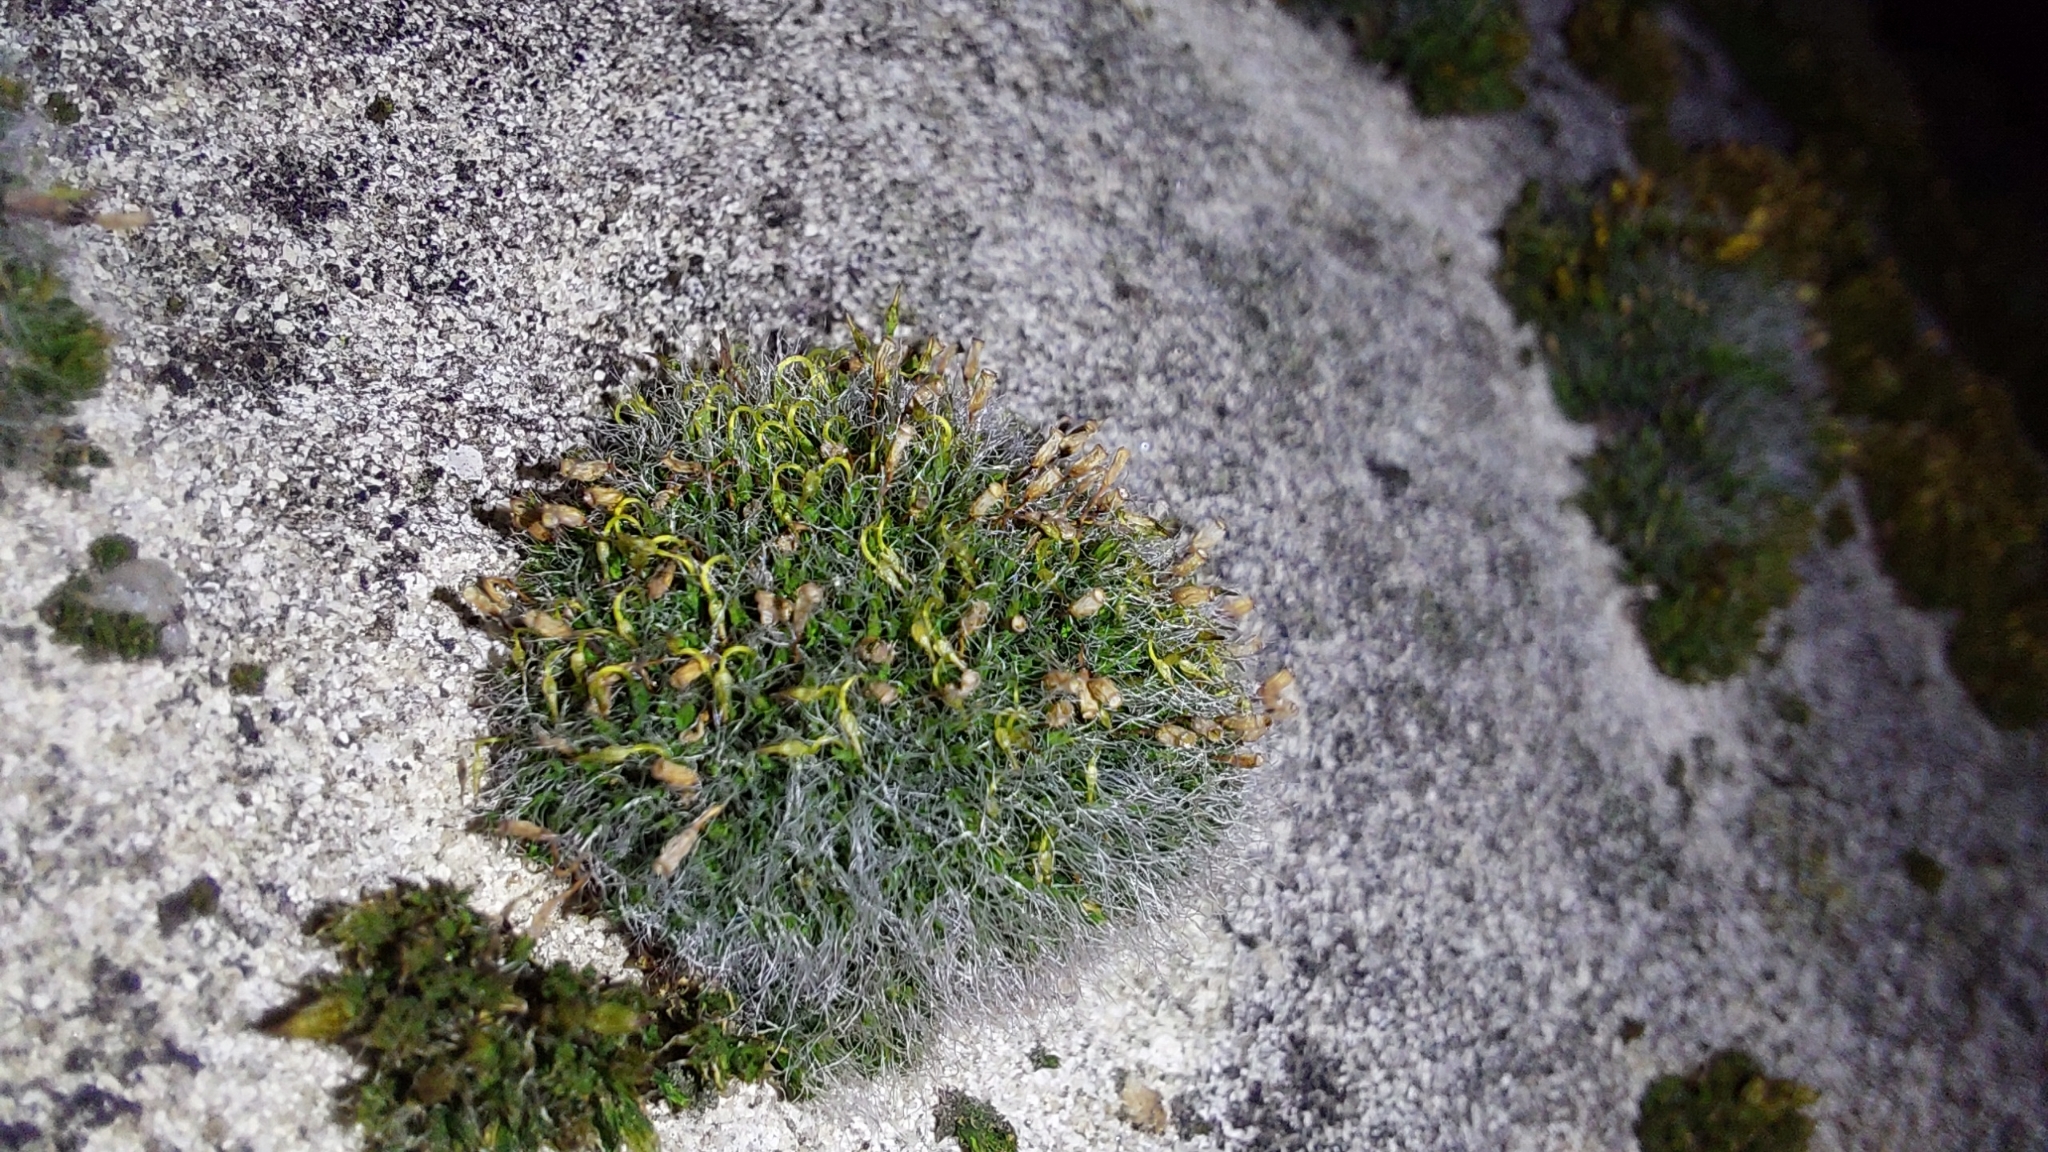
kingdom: Plantae
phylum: Bryophyta
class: Bryopsida
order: Grimmiales
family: Grimmiaceae
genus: Grimmia
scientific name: Grimmia pulvinata
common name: Grey-cushioned grimmia
